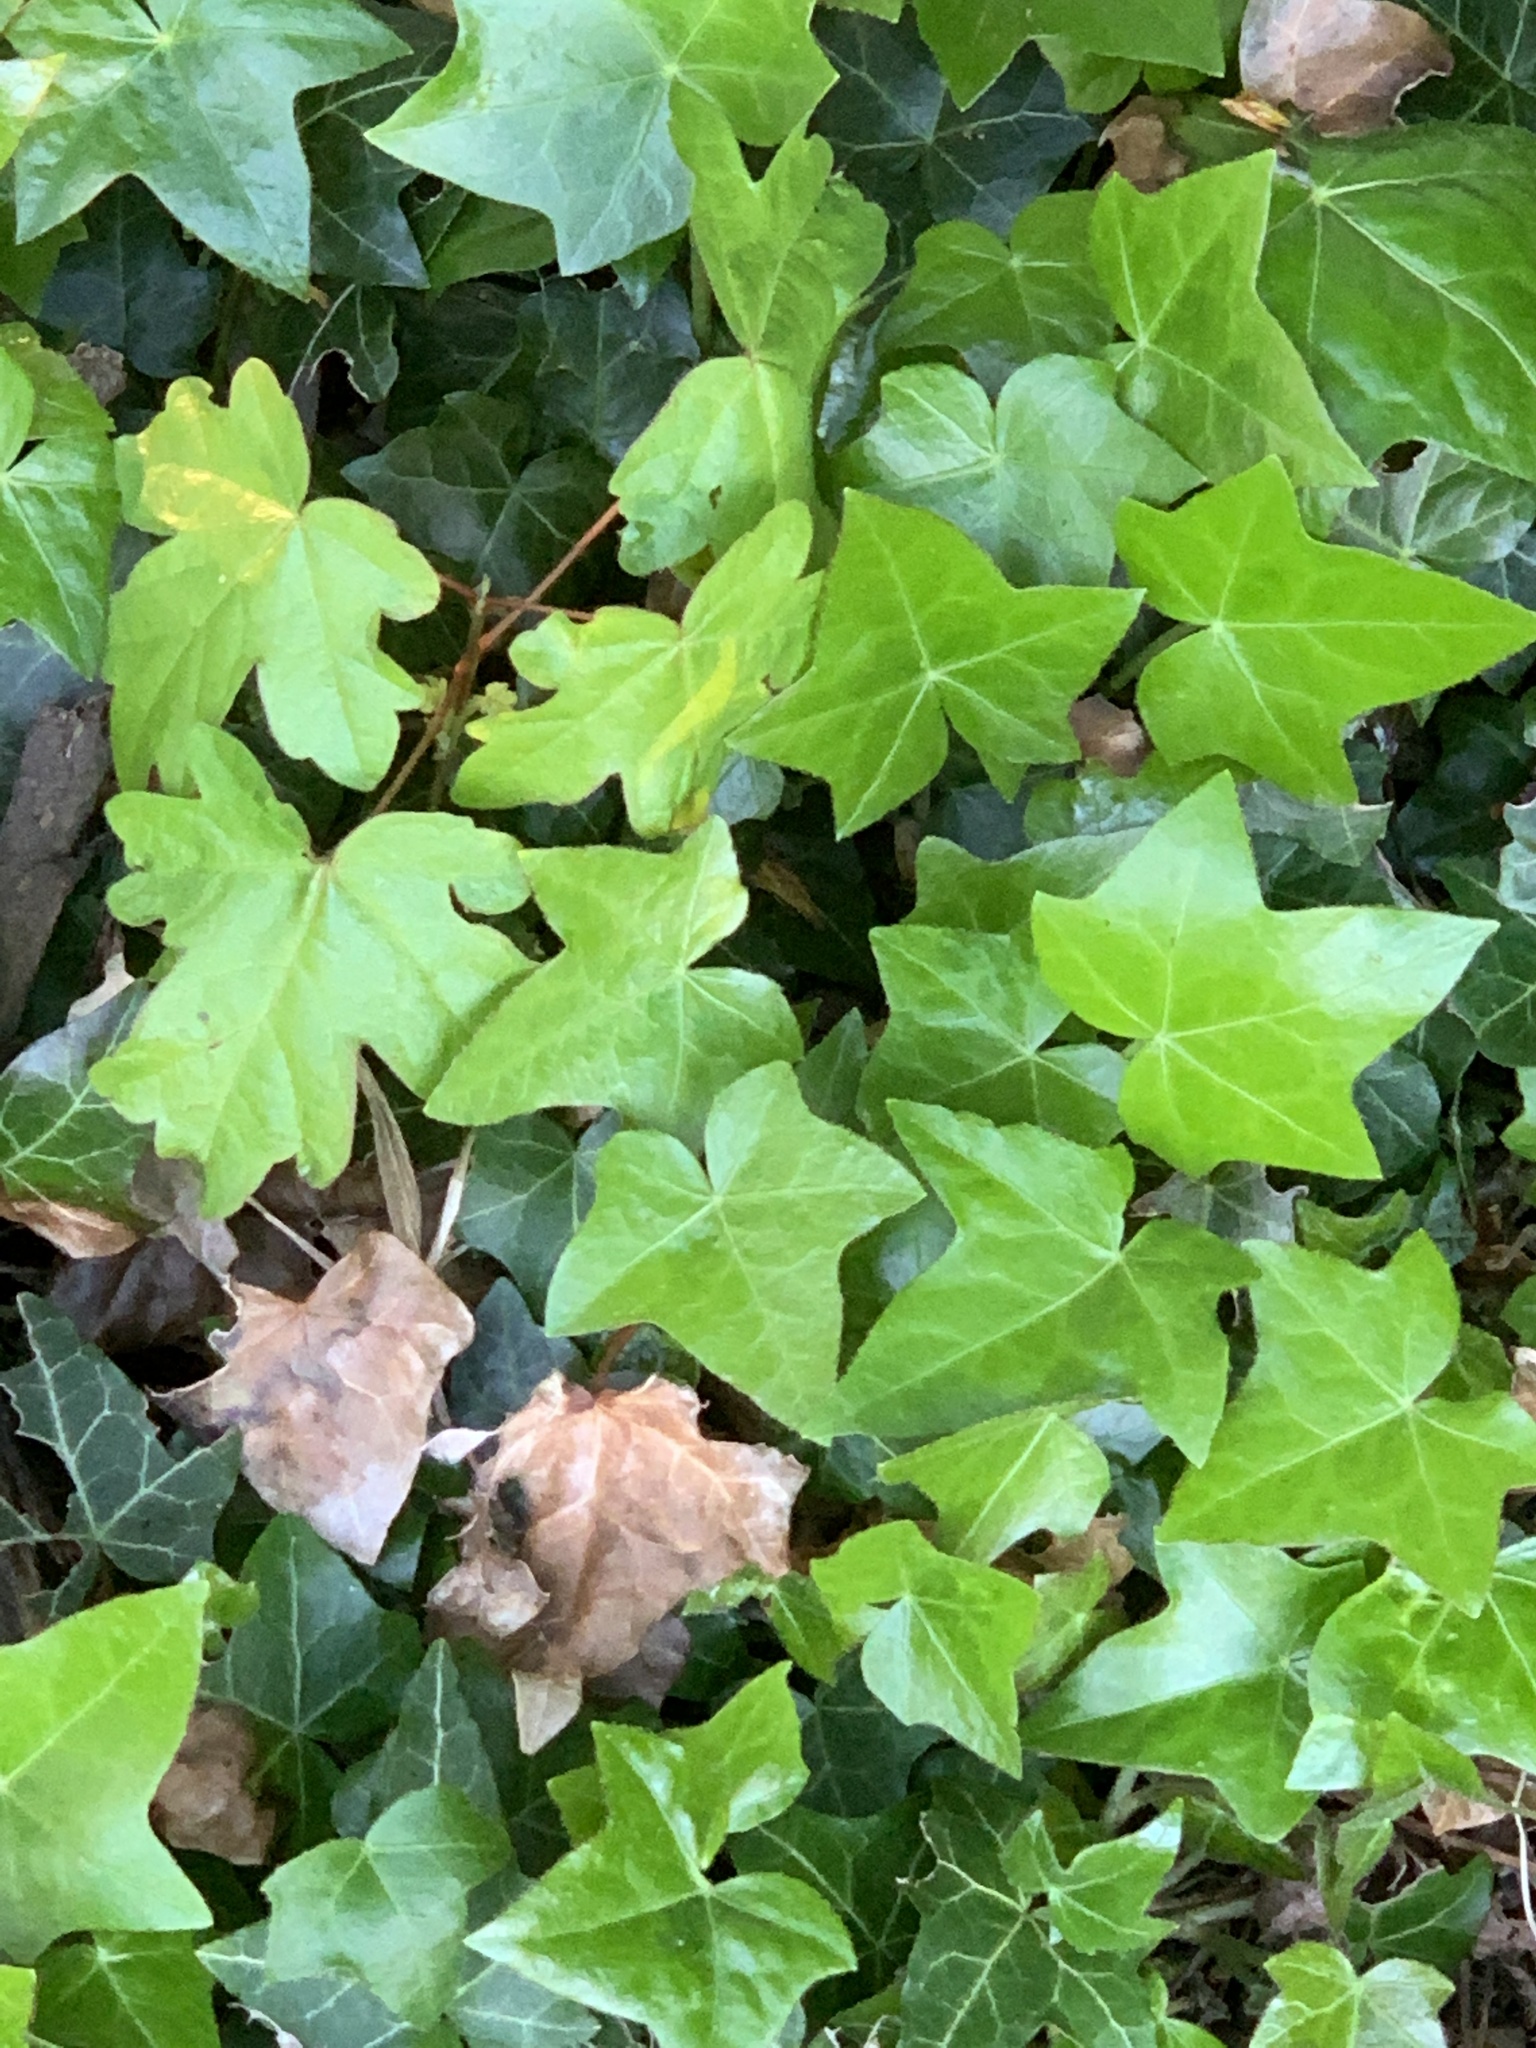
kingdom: Plantae
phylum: Tracheophyta
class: Magnoliopsida
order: Apiales
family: Araliaceae
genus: Hedera
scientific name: Hedera helix
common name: Ivy
